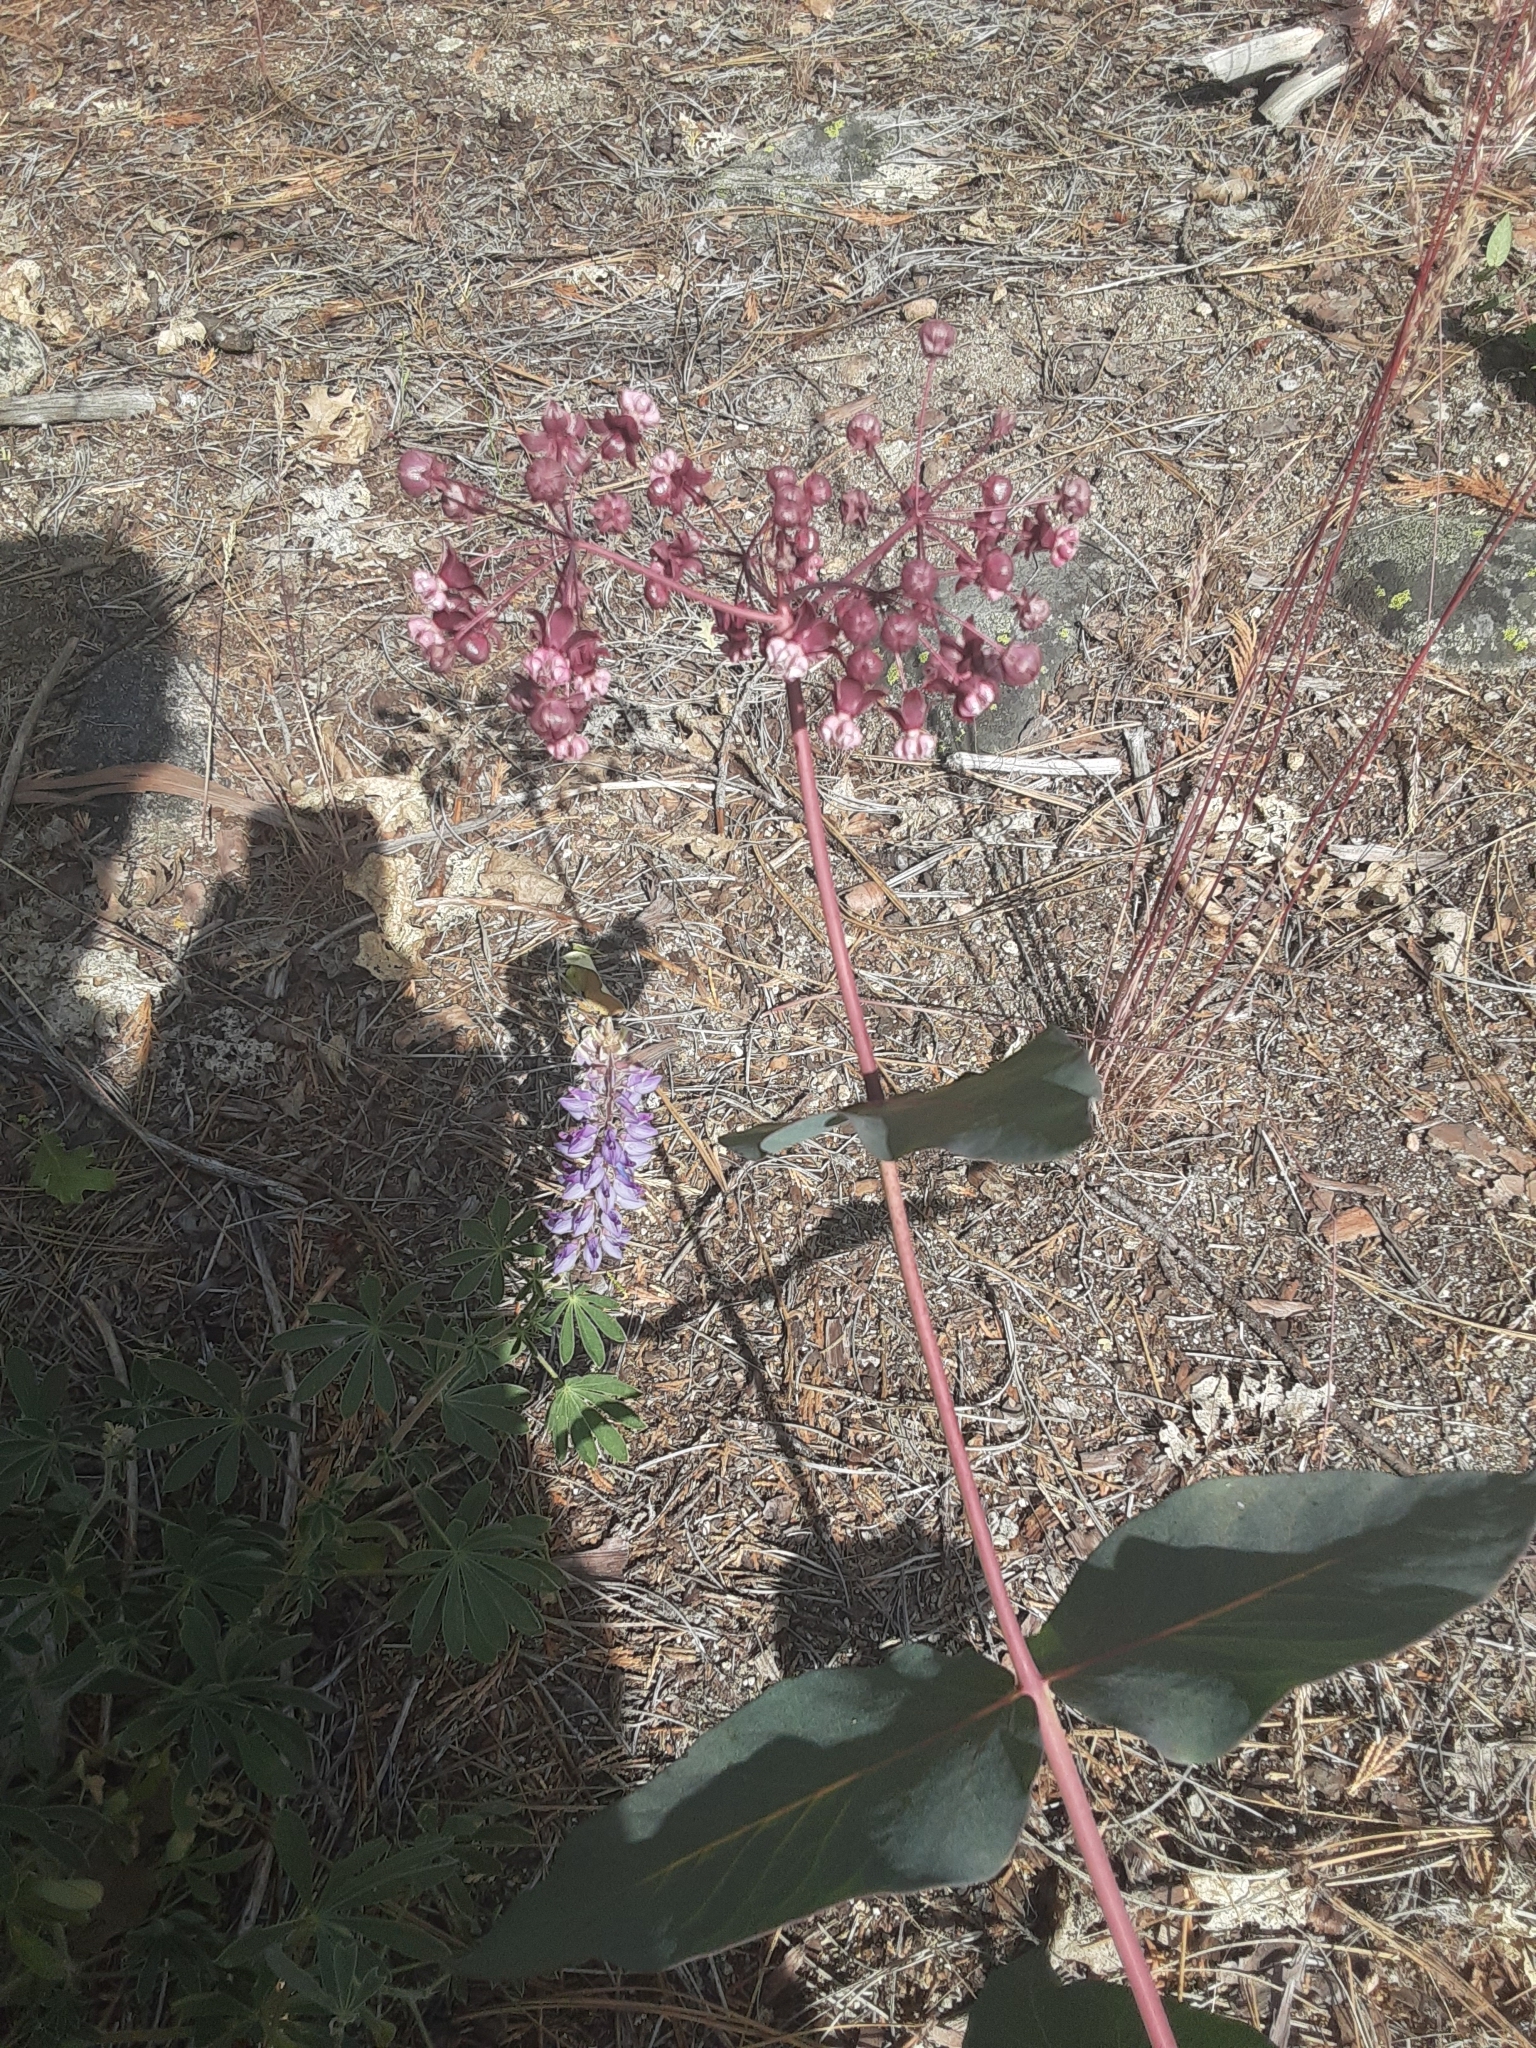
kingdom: Plantae
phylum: Tracheophyta
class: Magnoliopsida
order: Gentianales
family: Apocynaceae
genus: Asclepias
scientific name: Asclepias cordifolia
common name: Purple milkweed
